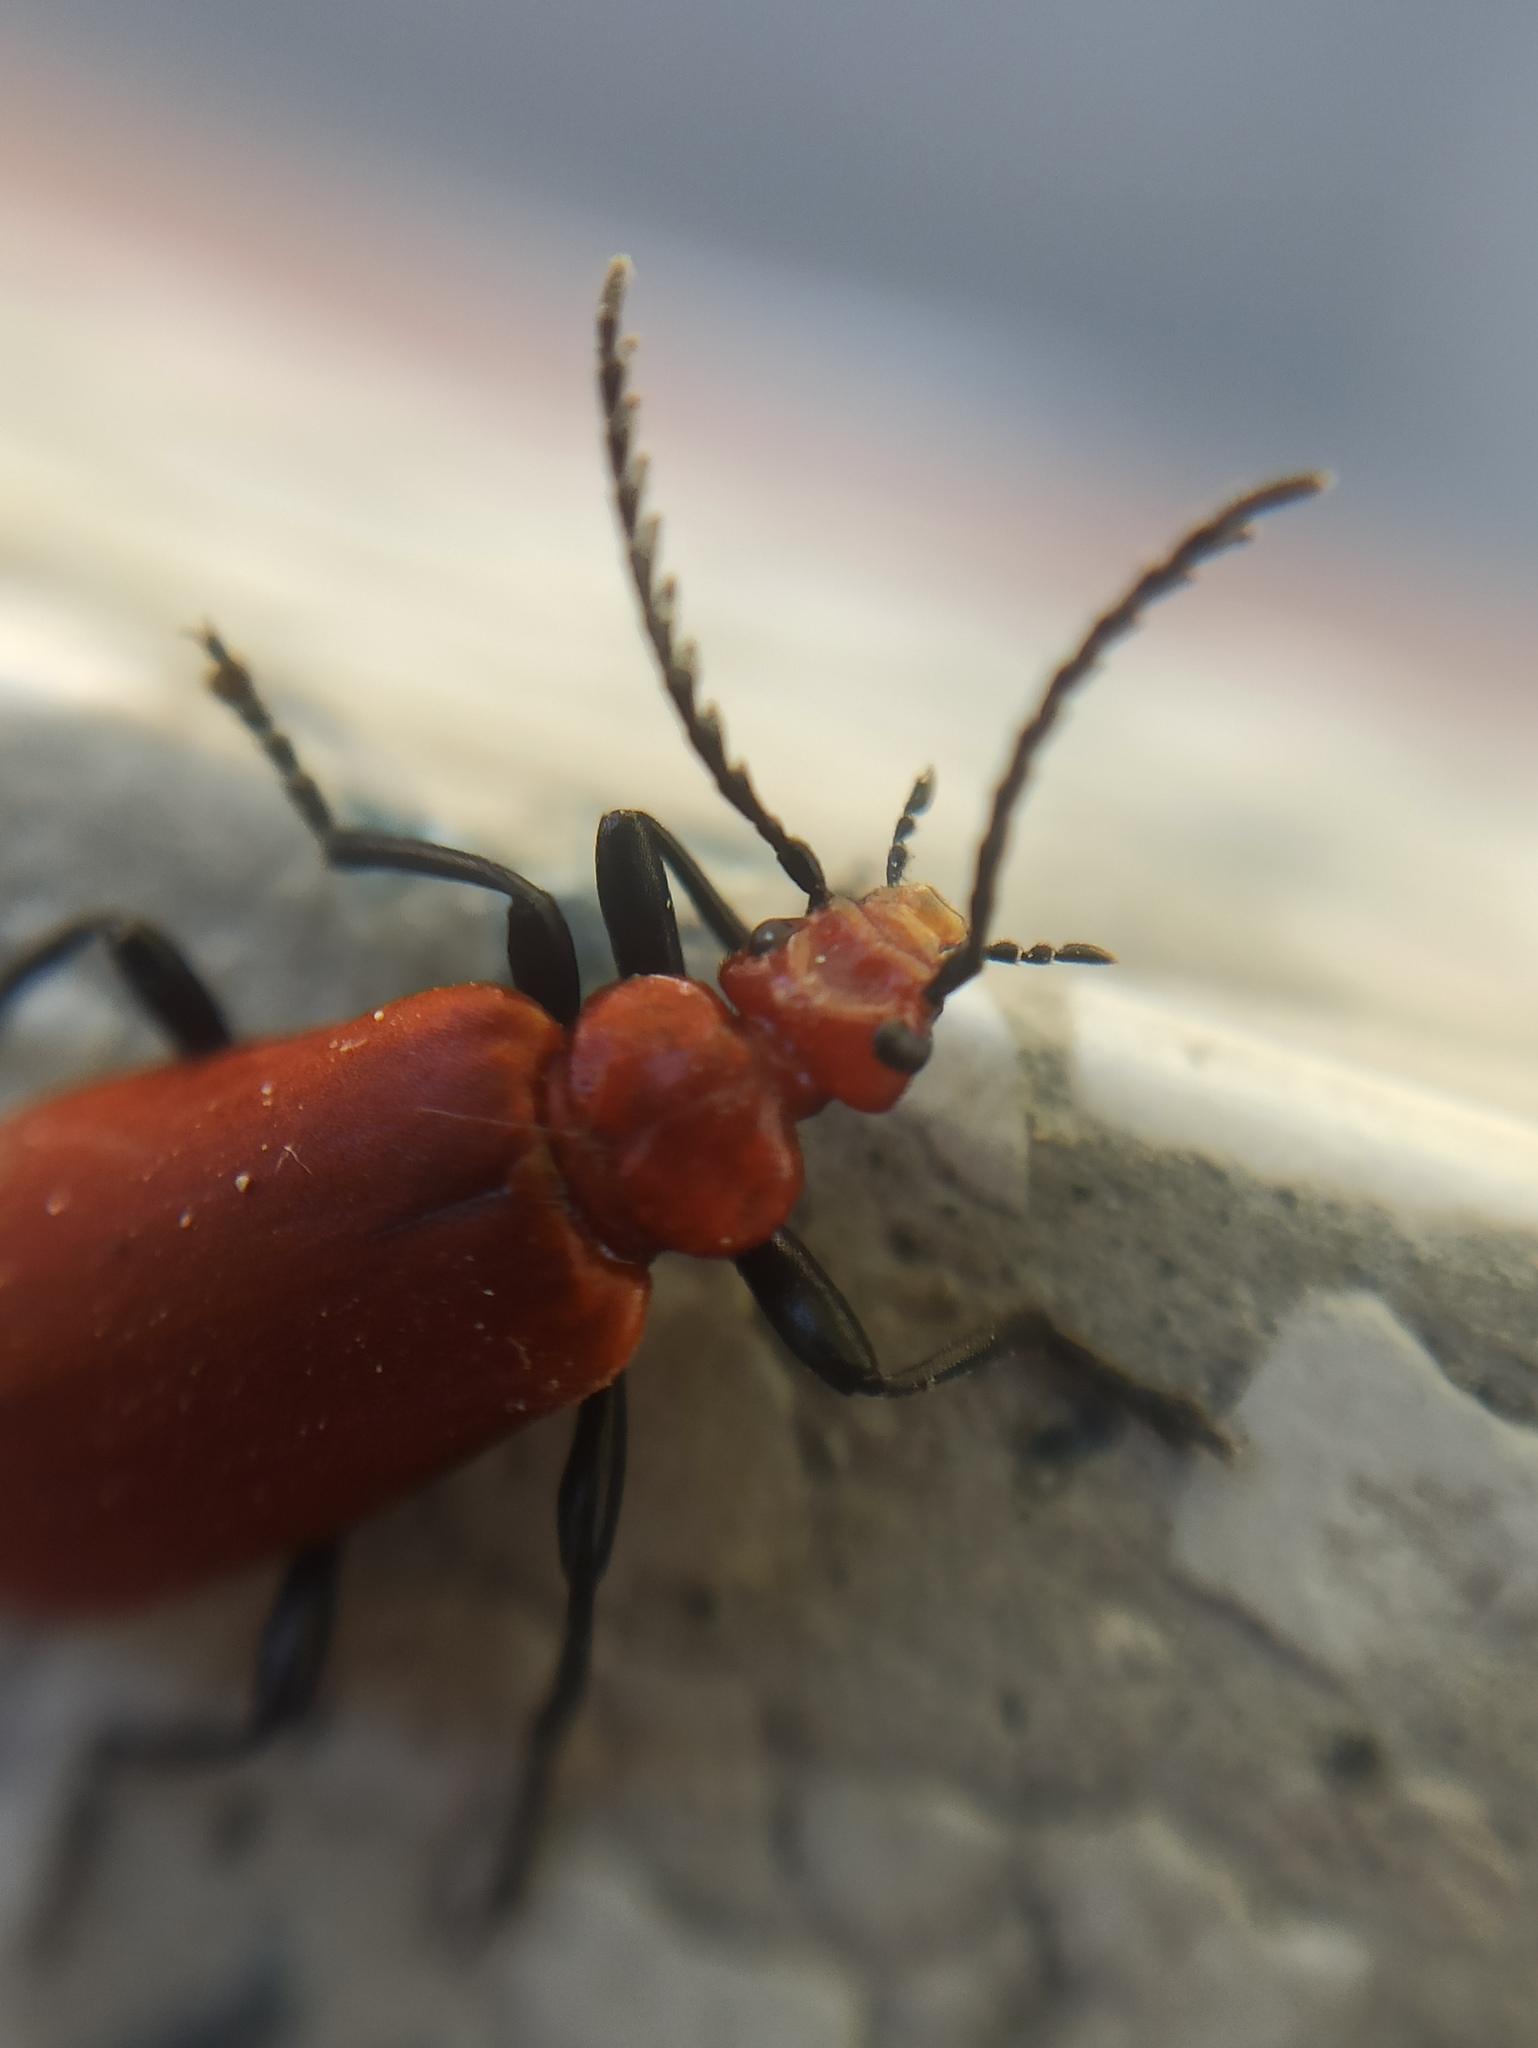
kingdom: Animalia
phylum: Arthropoda
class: Insecta
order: Coleoptera
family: Pyrochroidae
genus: Pyrochroa
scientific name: Pyrochroa serraticornis
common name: Red-headed cardinal beetle
